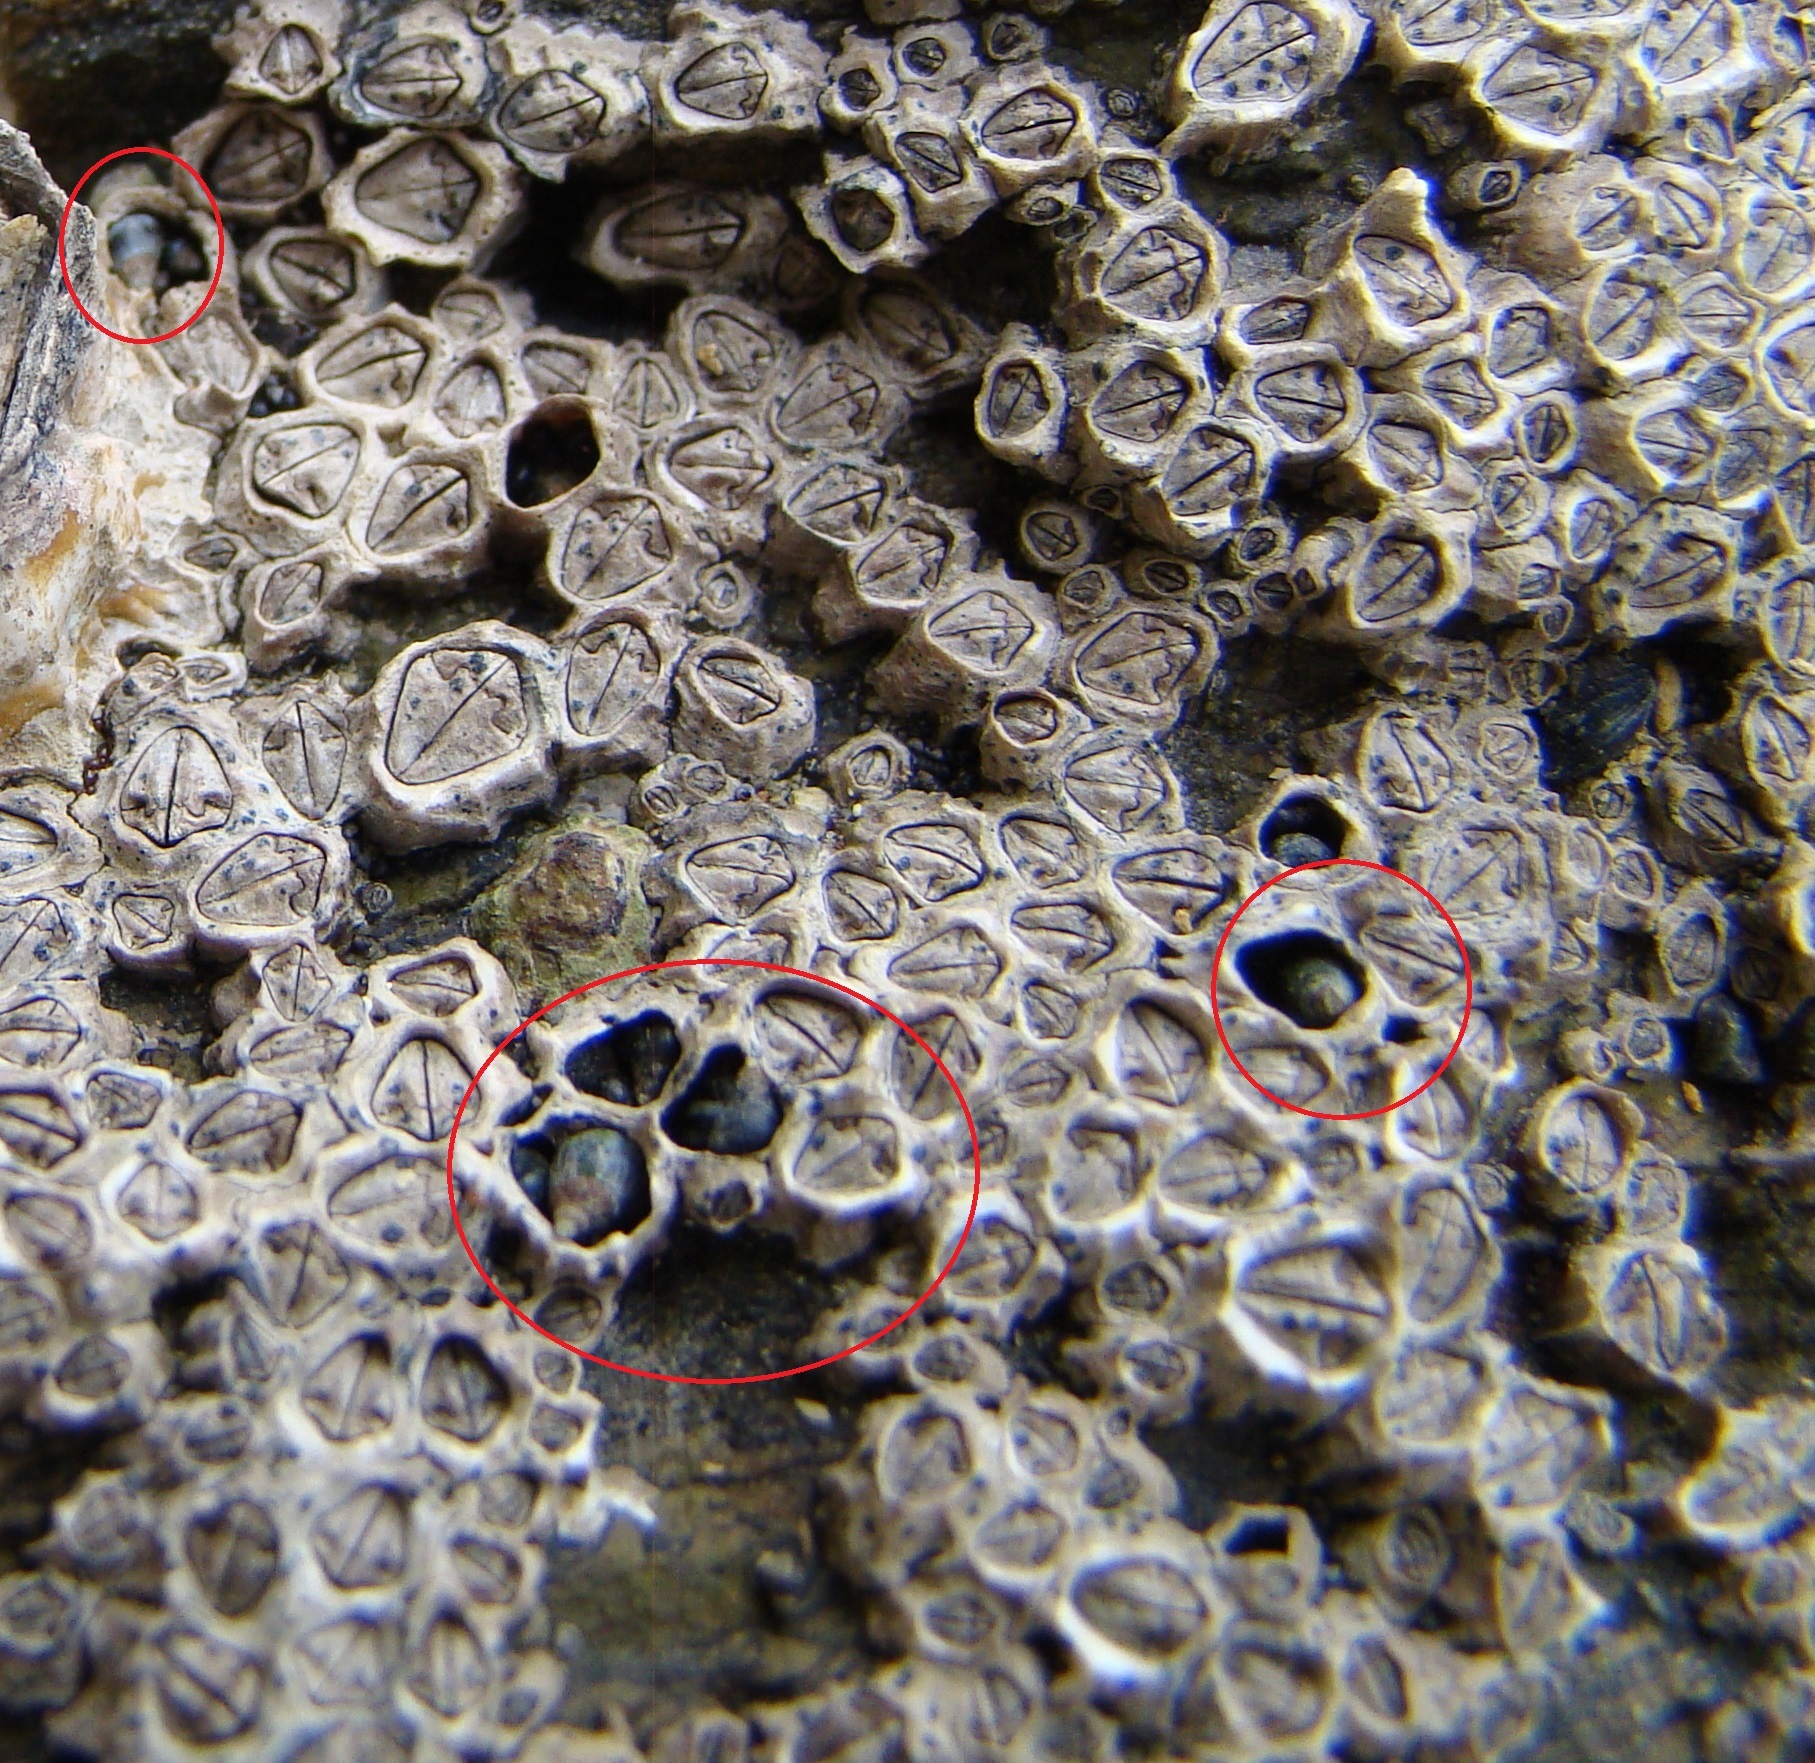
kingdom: Animalia
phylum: Mollusca
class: Gastropoda
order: Littorinimorpha
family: Littorinidae
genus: Austrolittorina
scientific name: Austrolittorina antipodum
